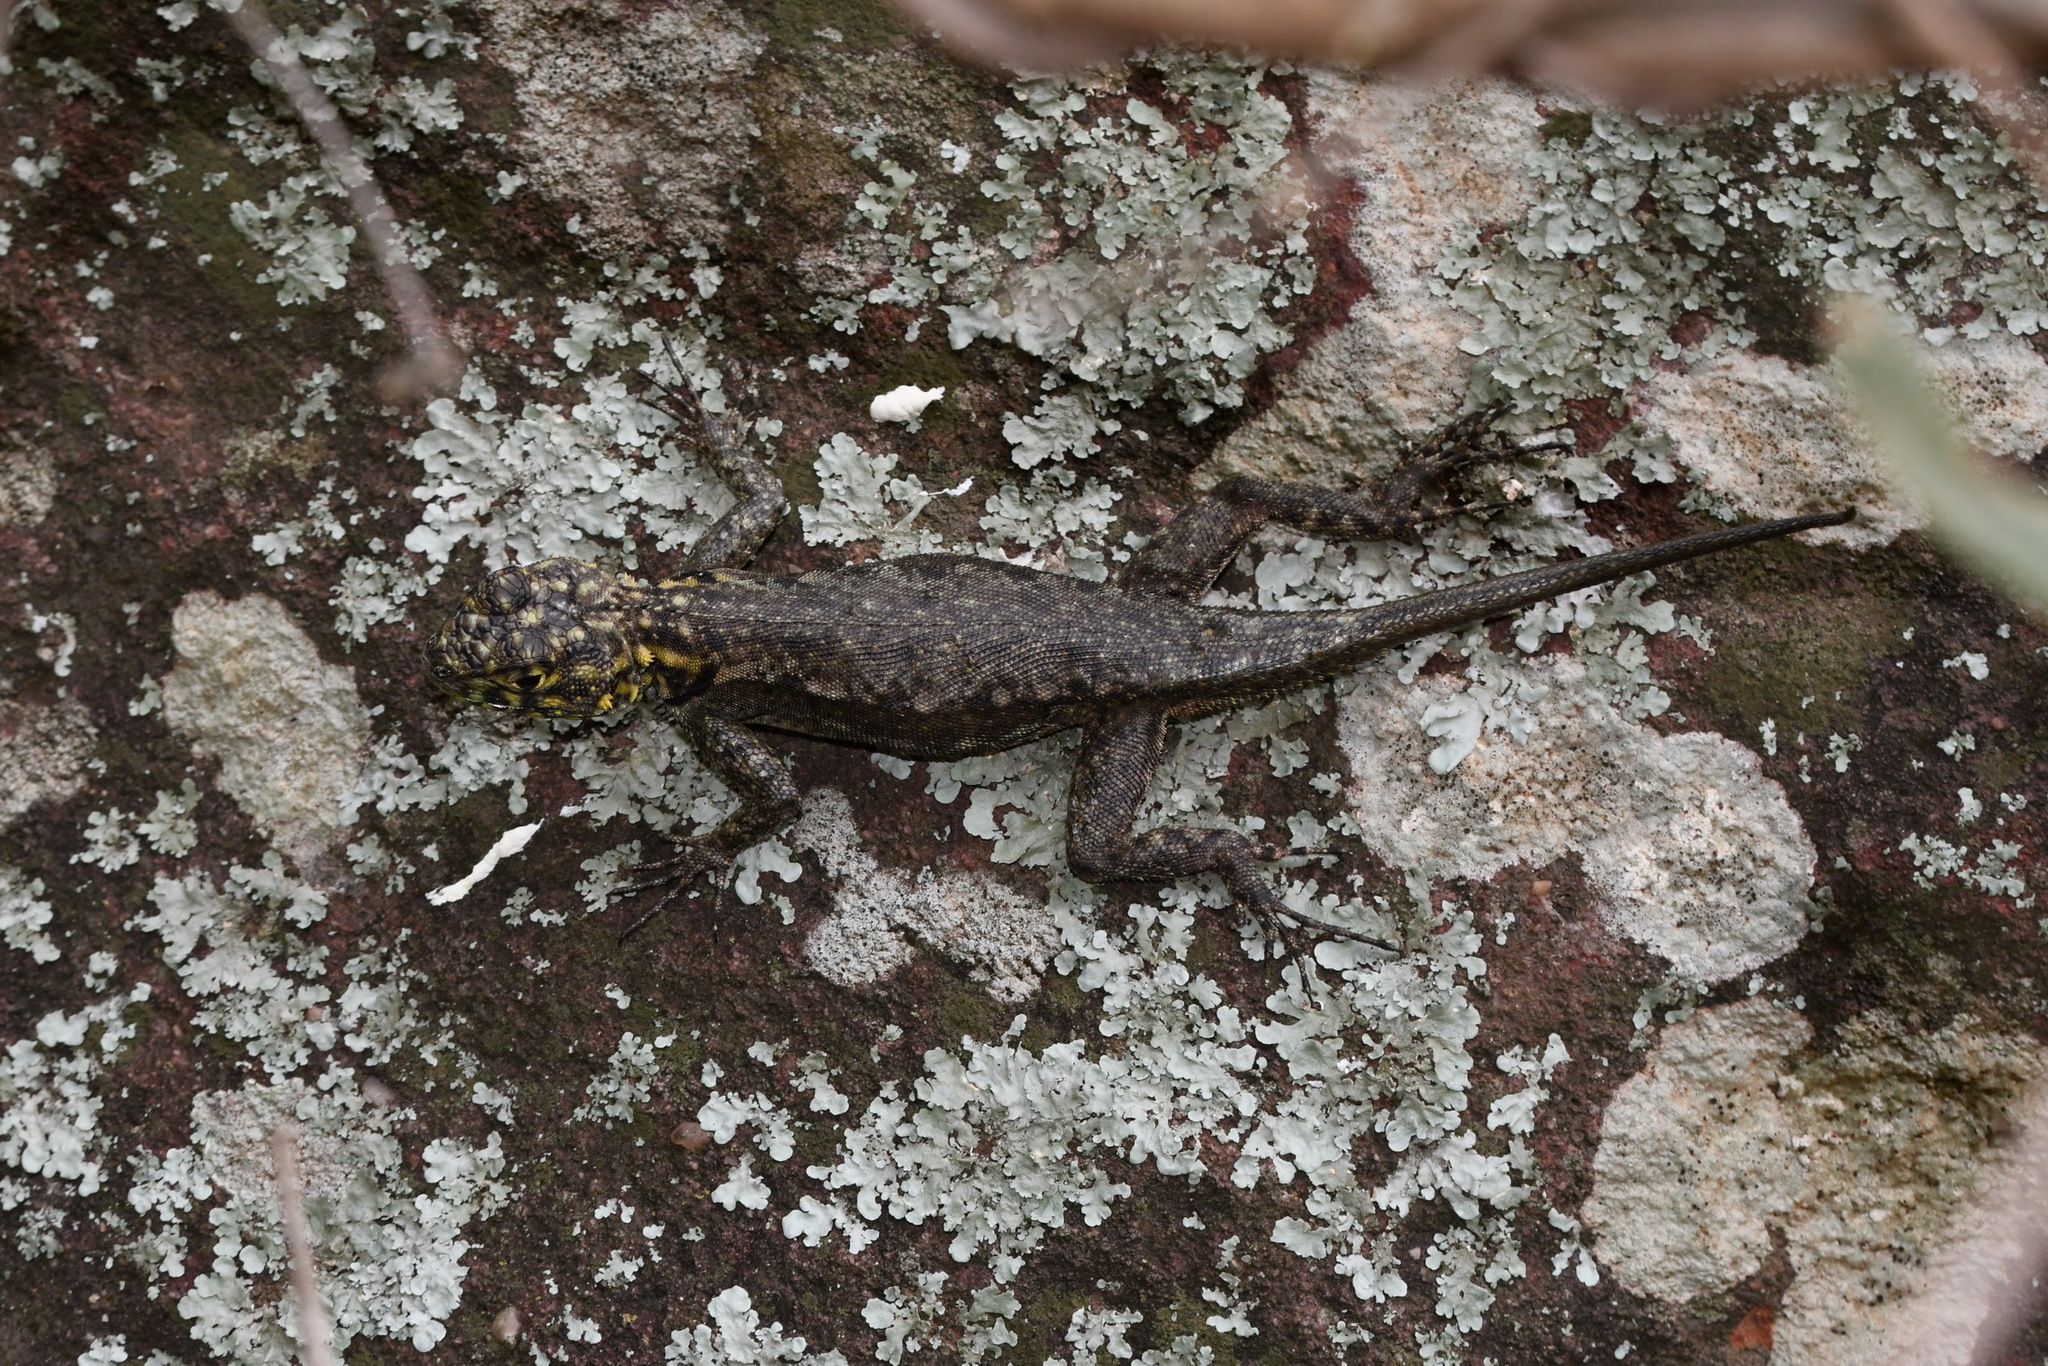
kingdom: Animalia
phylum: Chordata
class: Squamata
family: Tropiduridae
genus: Tropidurus
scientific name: Tropidurus lagunablanca
